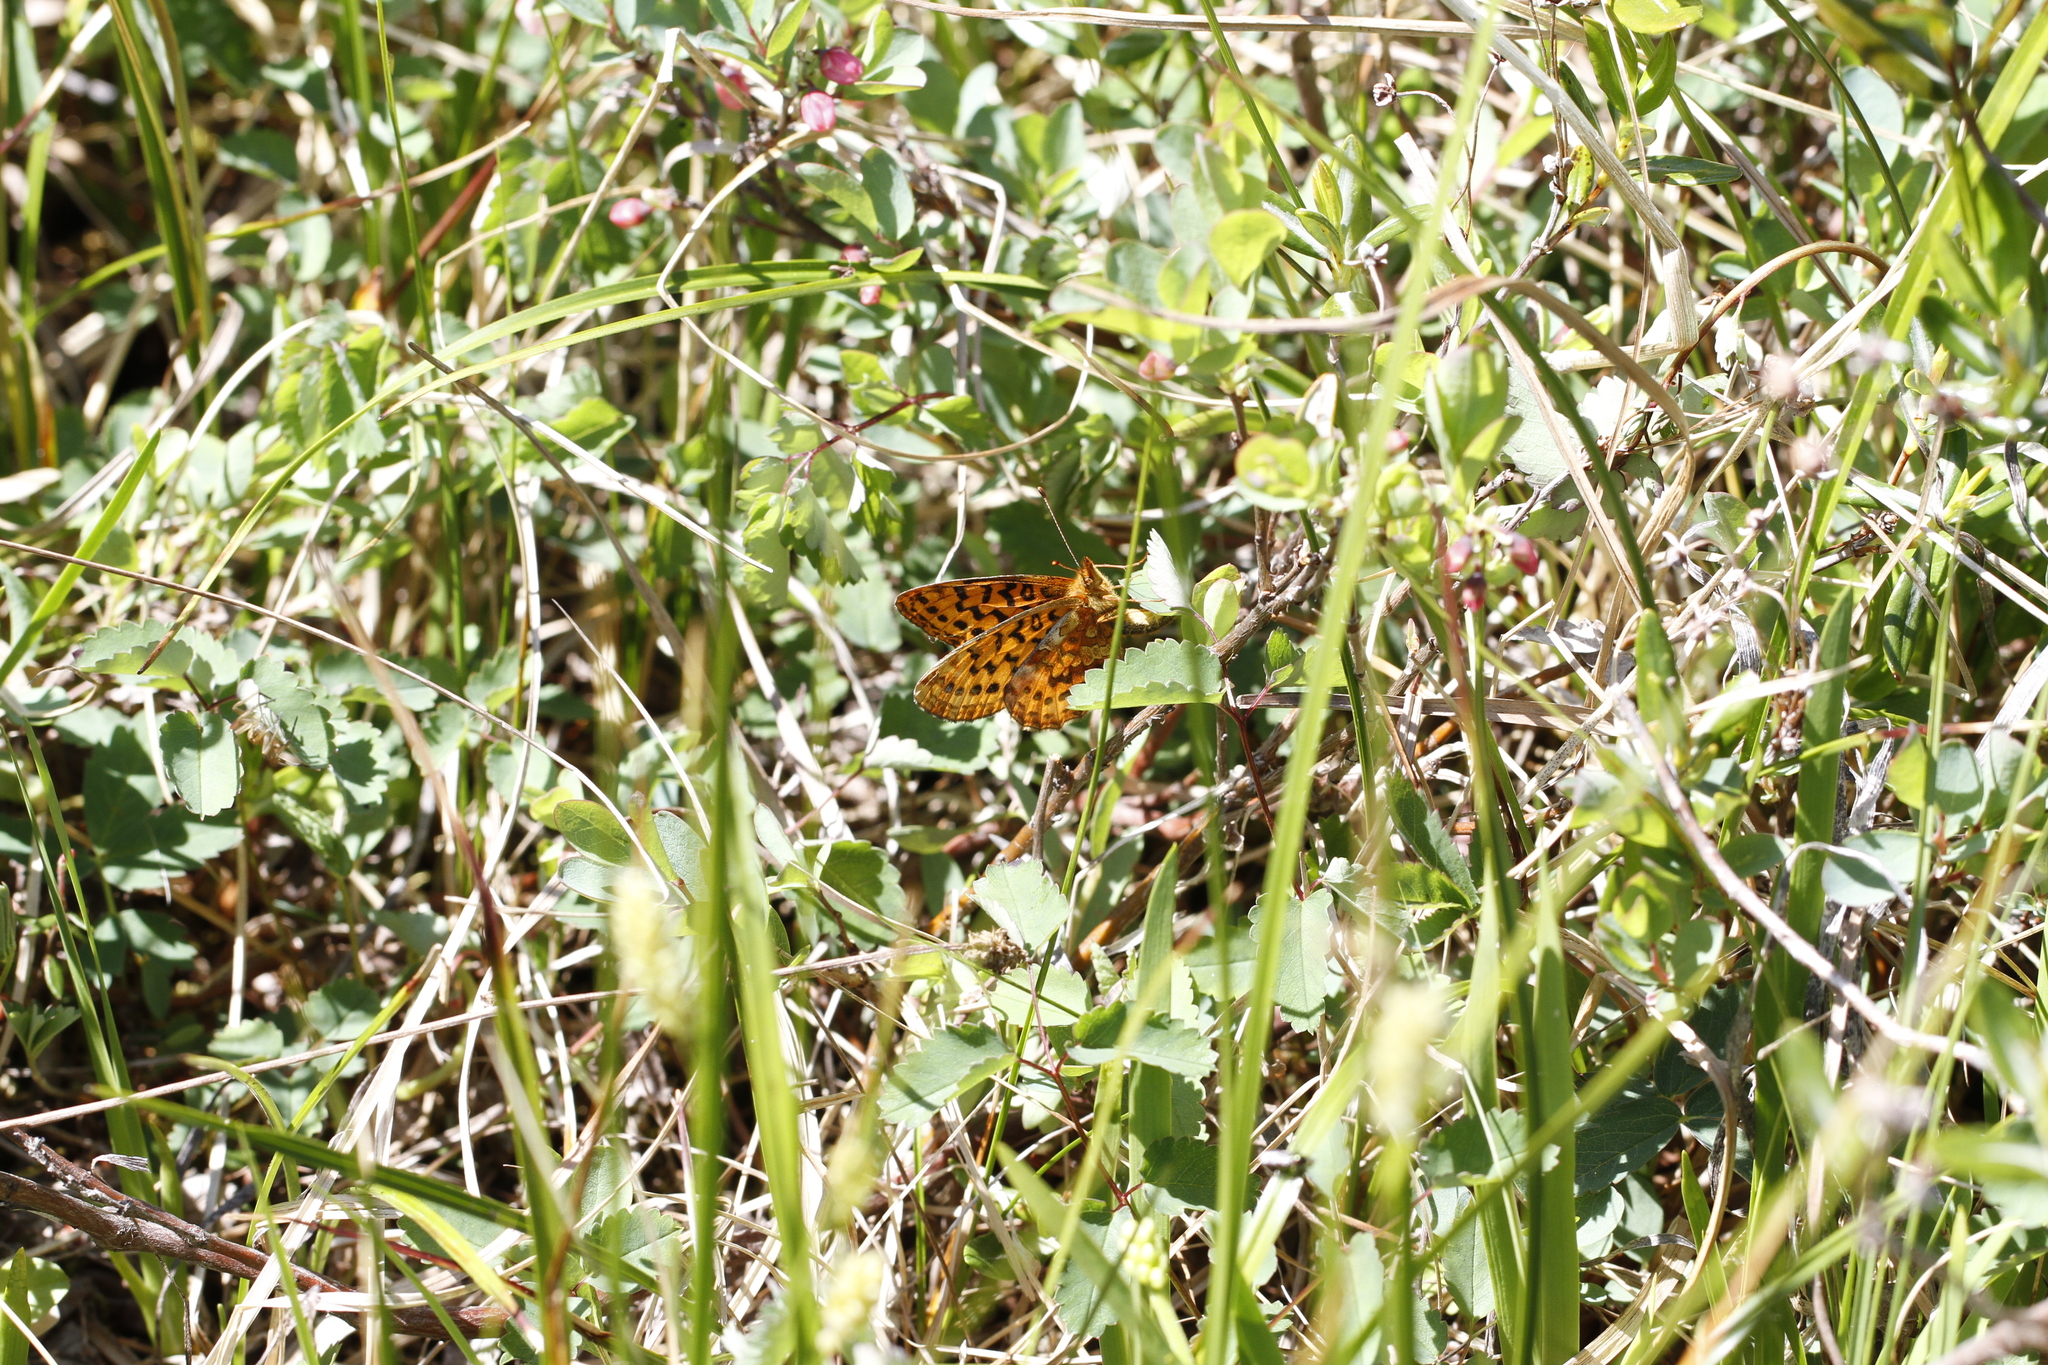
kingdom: Animalia
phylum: Arthropoda
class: Insecta
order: Lepidoptera
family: Nymphalidae
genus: Boloria
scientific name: Boloria epithore
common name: Pacific fritillary
